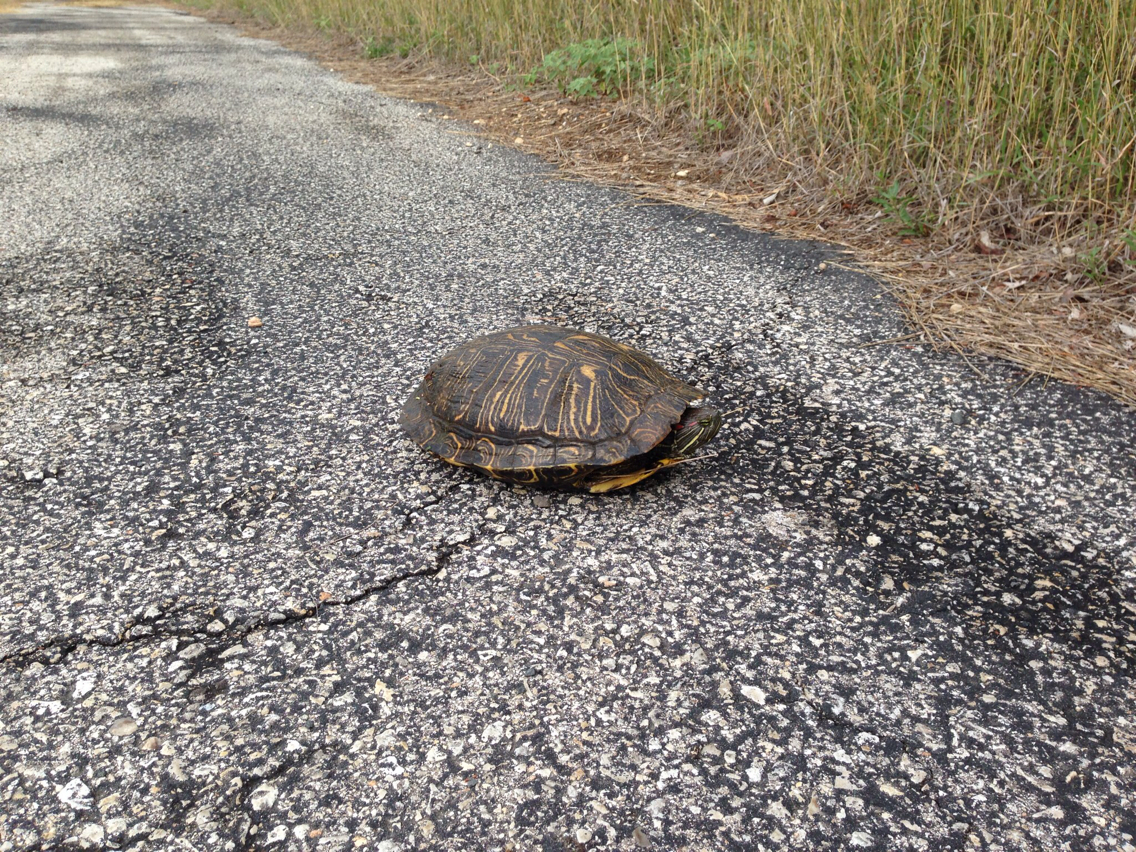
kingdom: Animalia
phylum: Chordata
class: Testudines
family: Emydidae
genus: Trachemys
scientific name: Trachemys scripta
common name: Slider
